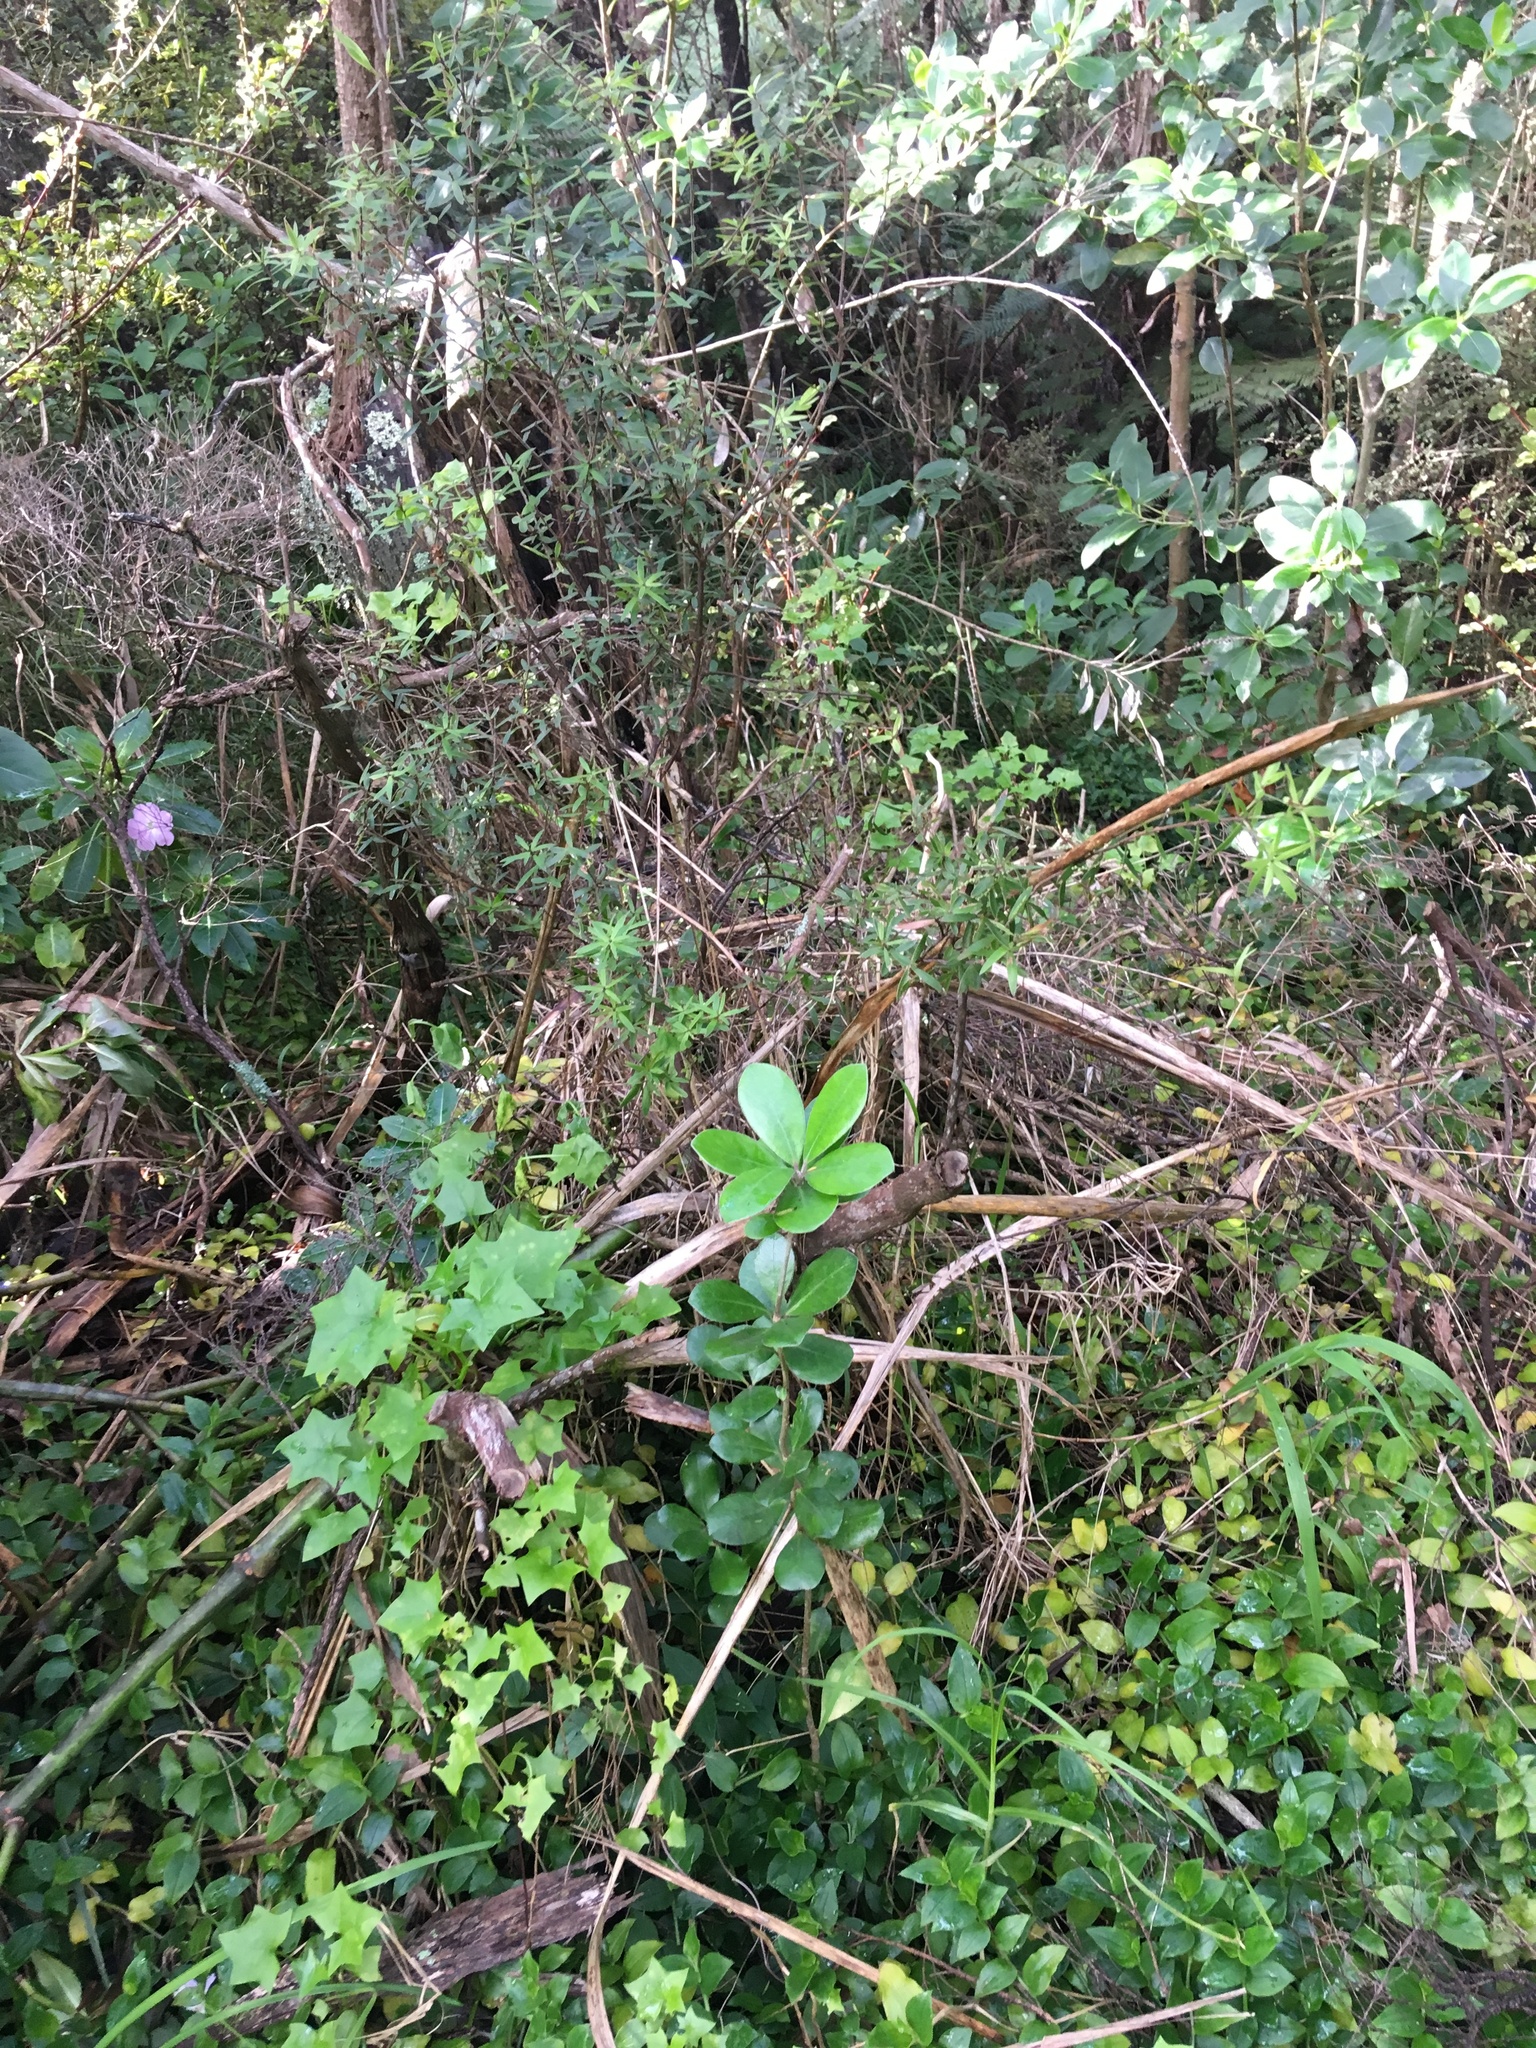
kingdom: Plantae
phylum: Tracheophyta
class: Magnoliopsida
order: Asterales
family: Asteraceae
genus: Delairea
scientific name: Delairea odorata
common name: Cape-ivy
